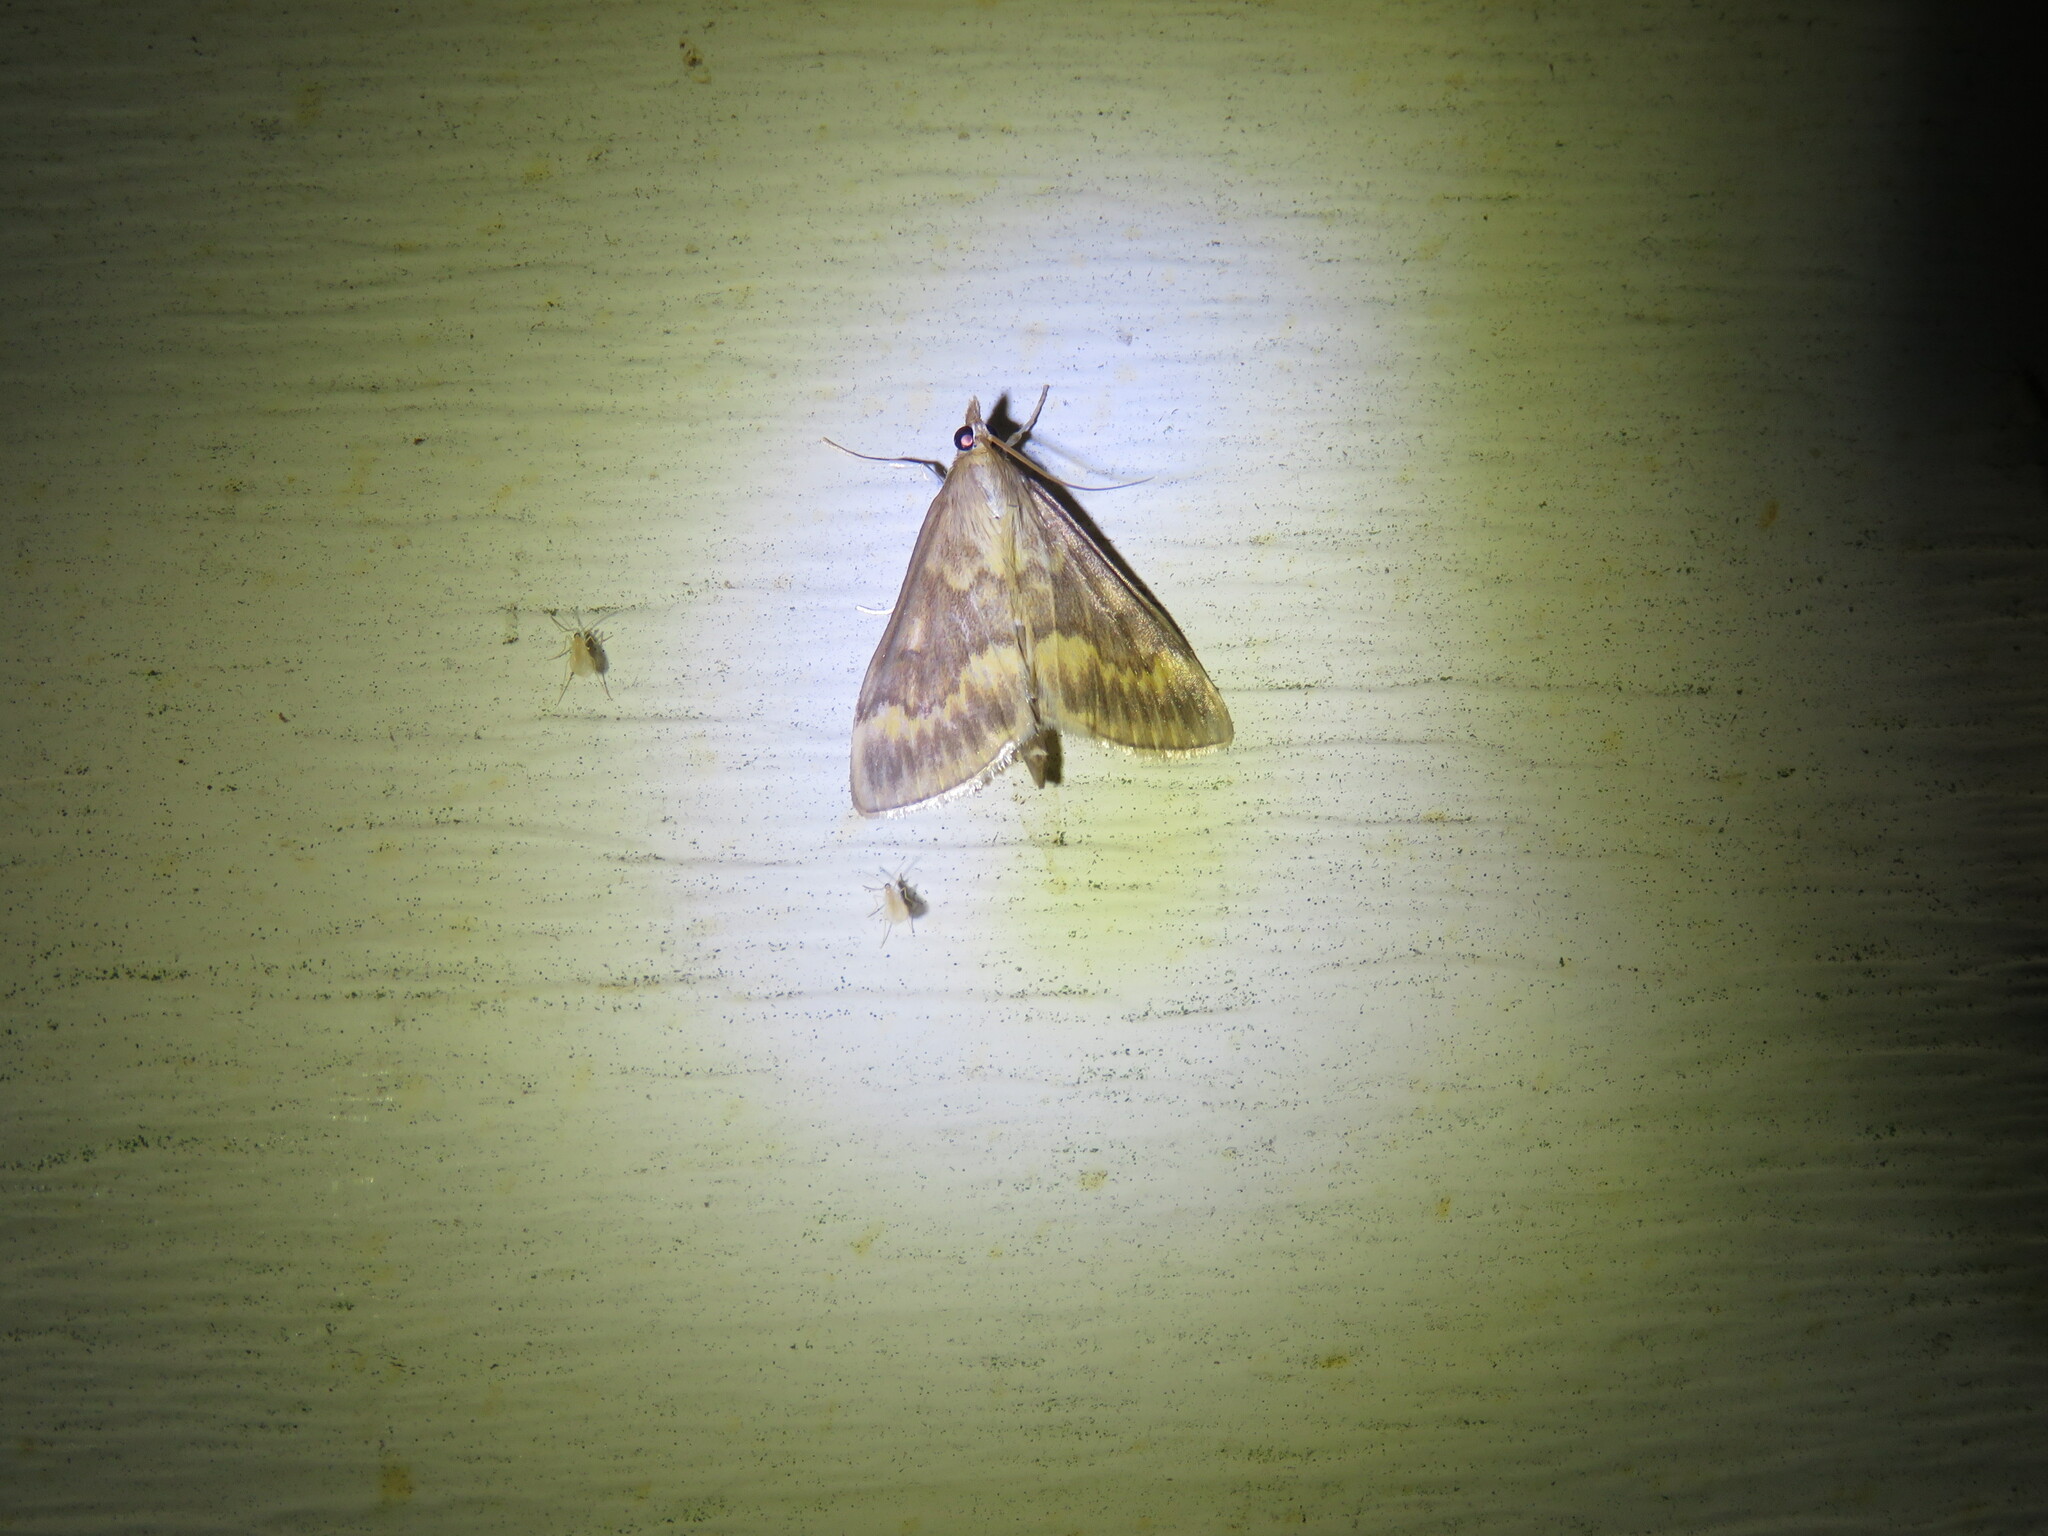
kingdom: Animalia
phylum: Arthropoda
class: Insecta
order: Lepidoptera
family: Crambidae
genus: Ostrinia
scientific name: Ostrinia nubilalis
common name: European corn borer
